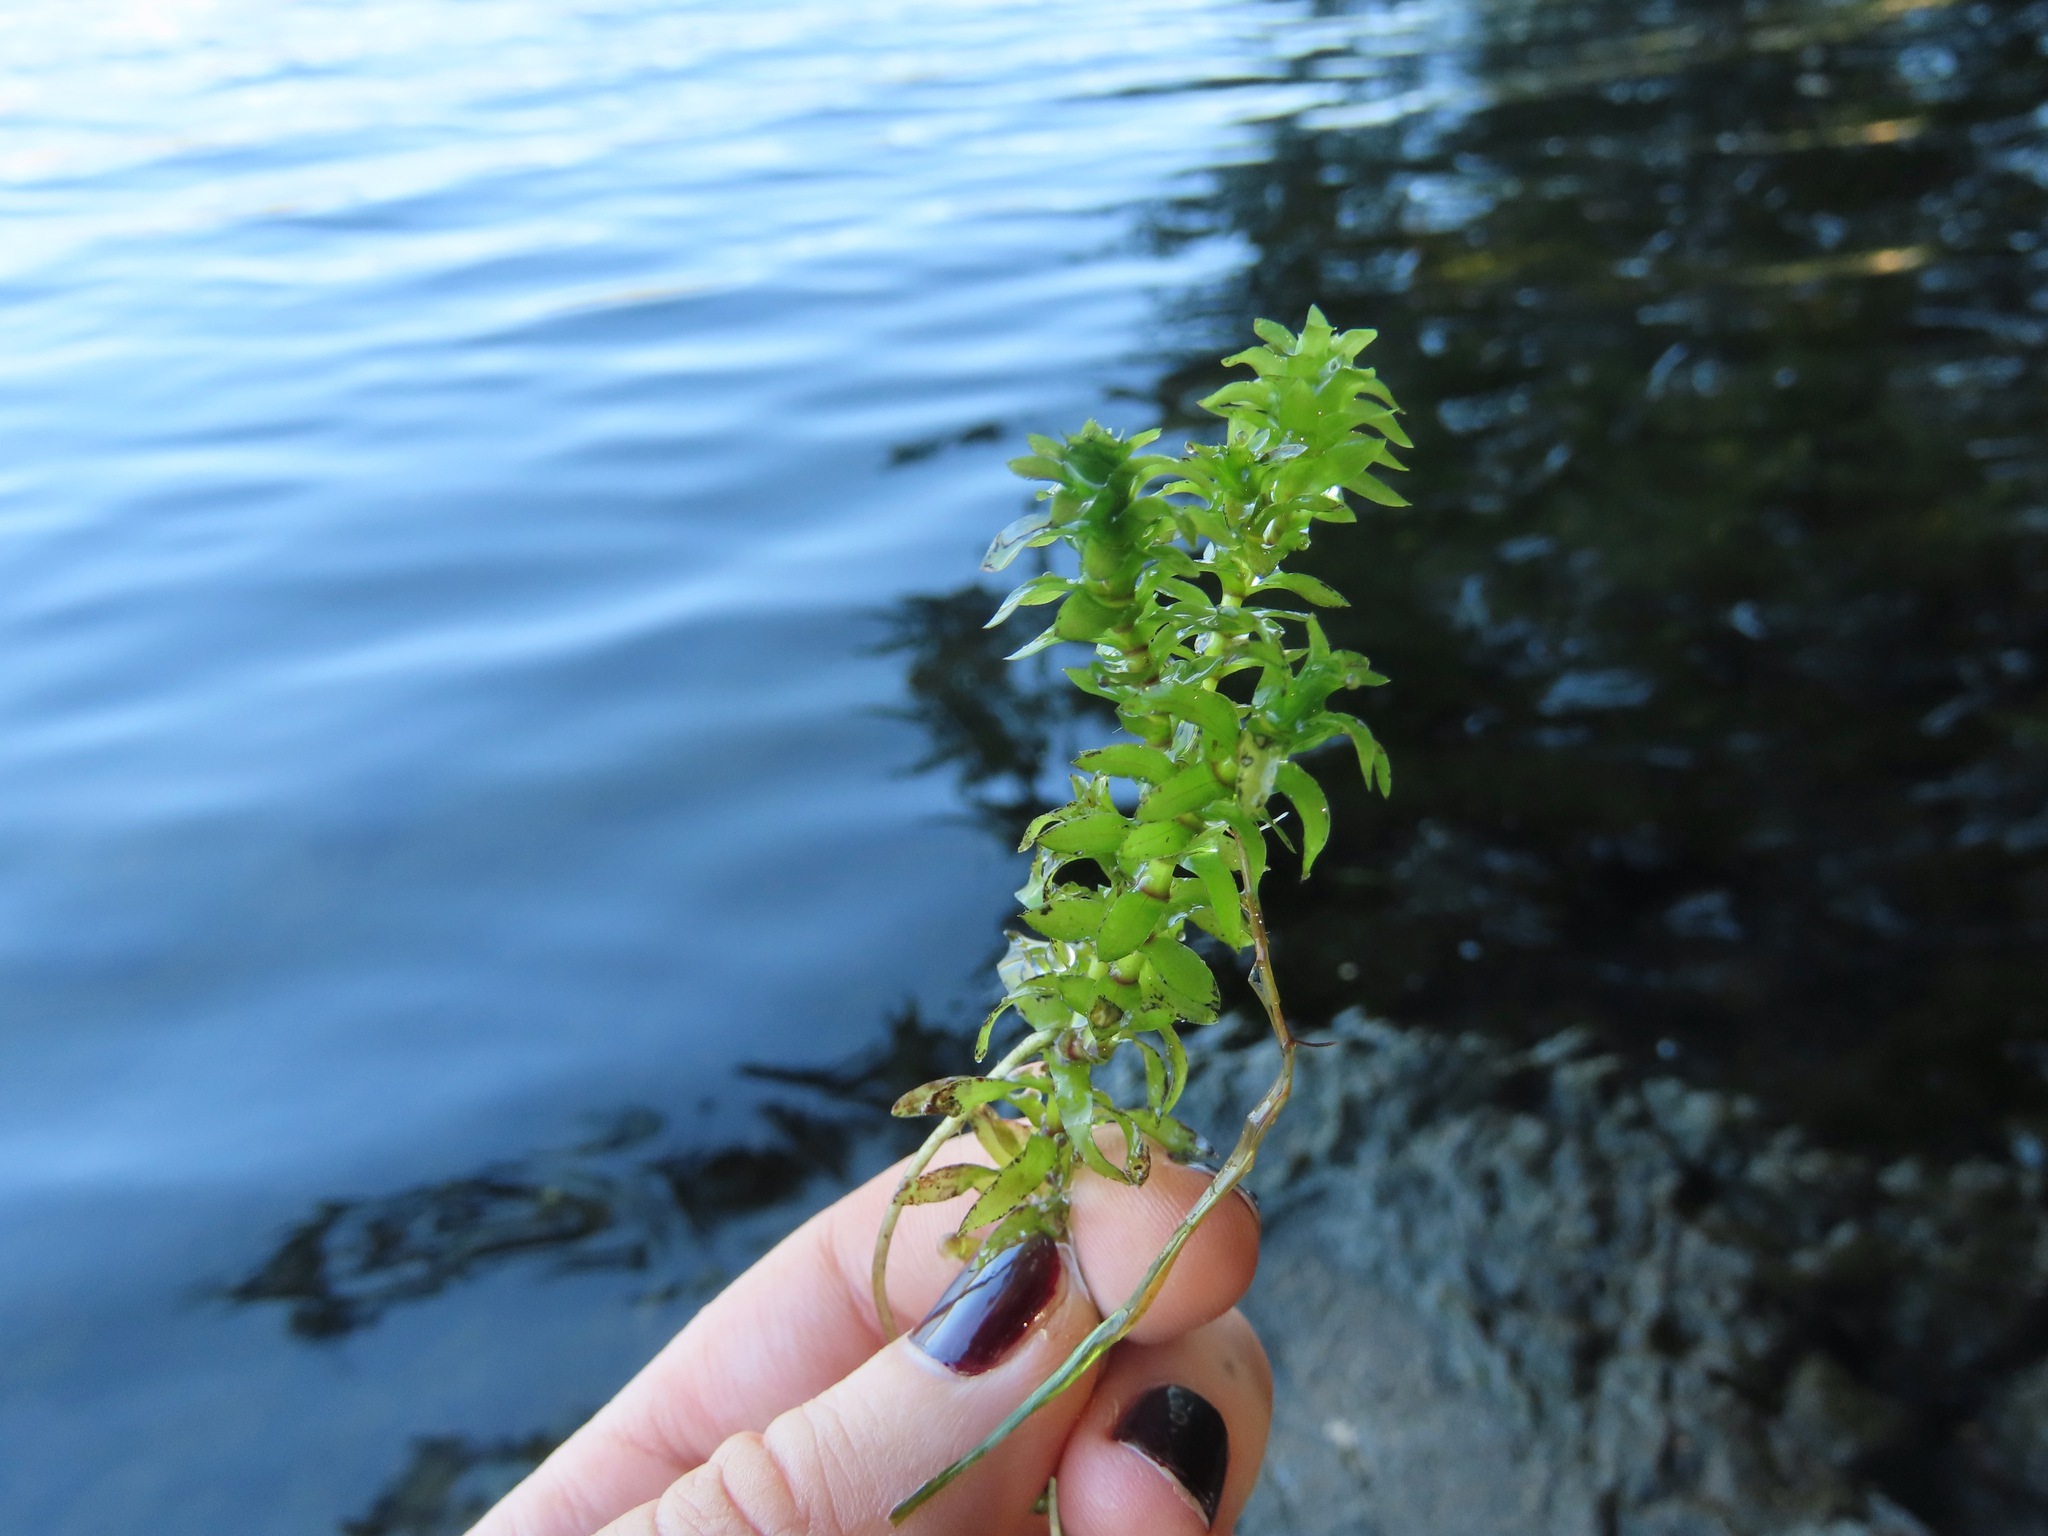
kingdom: Plantae
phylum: Tracheophyta
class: Liliopsida
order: Alismatales
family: Hydrocharitaceae
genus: Elodea
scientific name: Elodea canadensis
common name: Canadian waterweed
